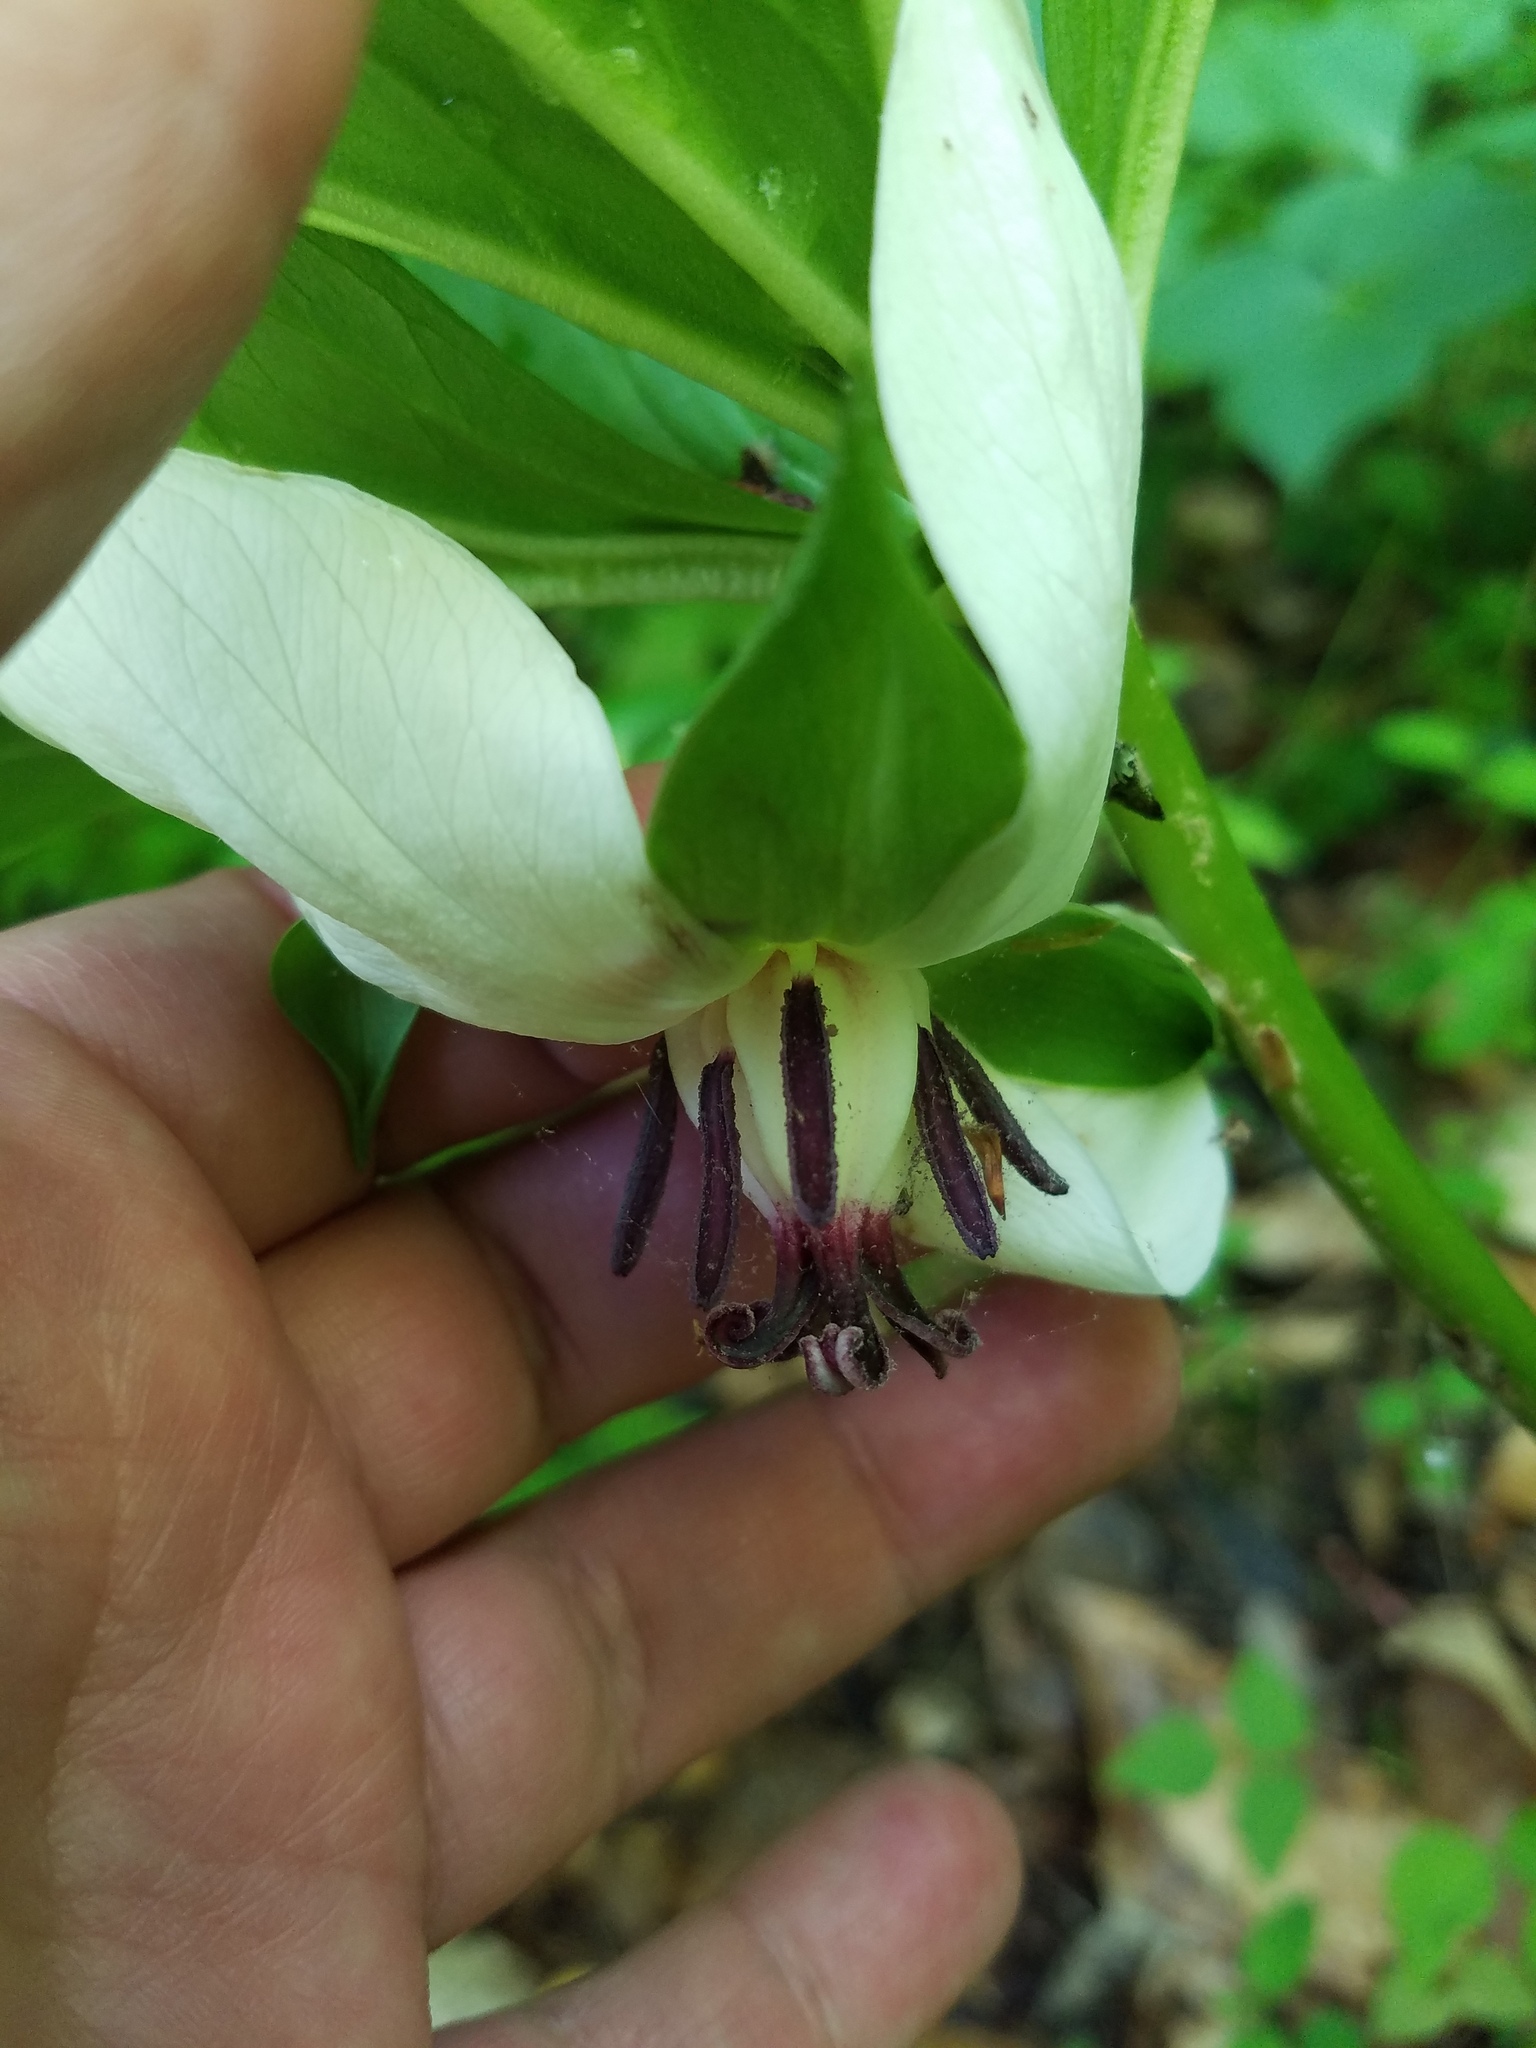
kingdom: Plantae
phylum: Tracheophyta
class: Liliopsida
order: Liliales
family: Melanthiaceae
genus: Trillium
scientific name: Trillium rugelii
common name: Ill-scented trillium
